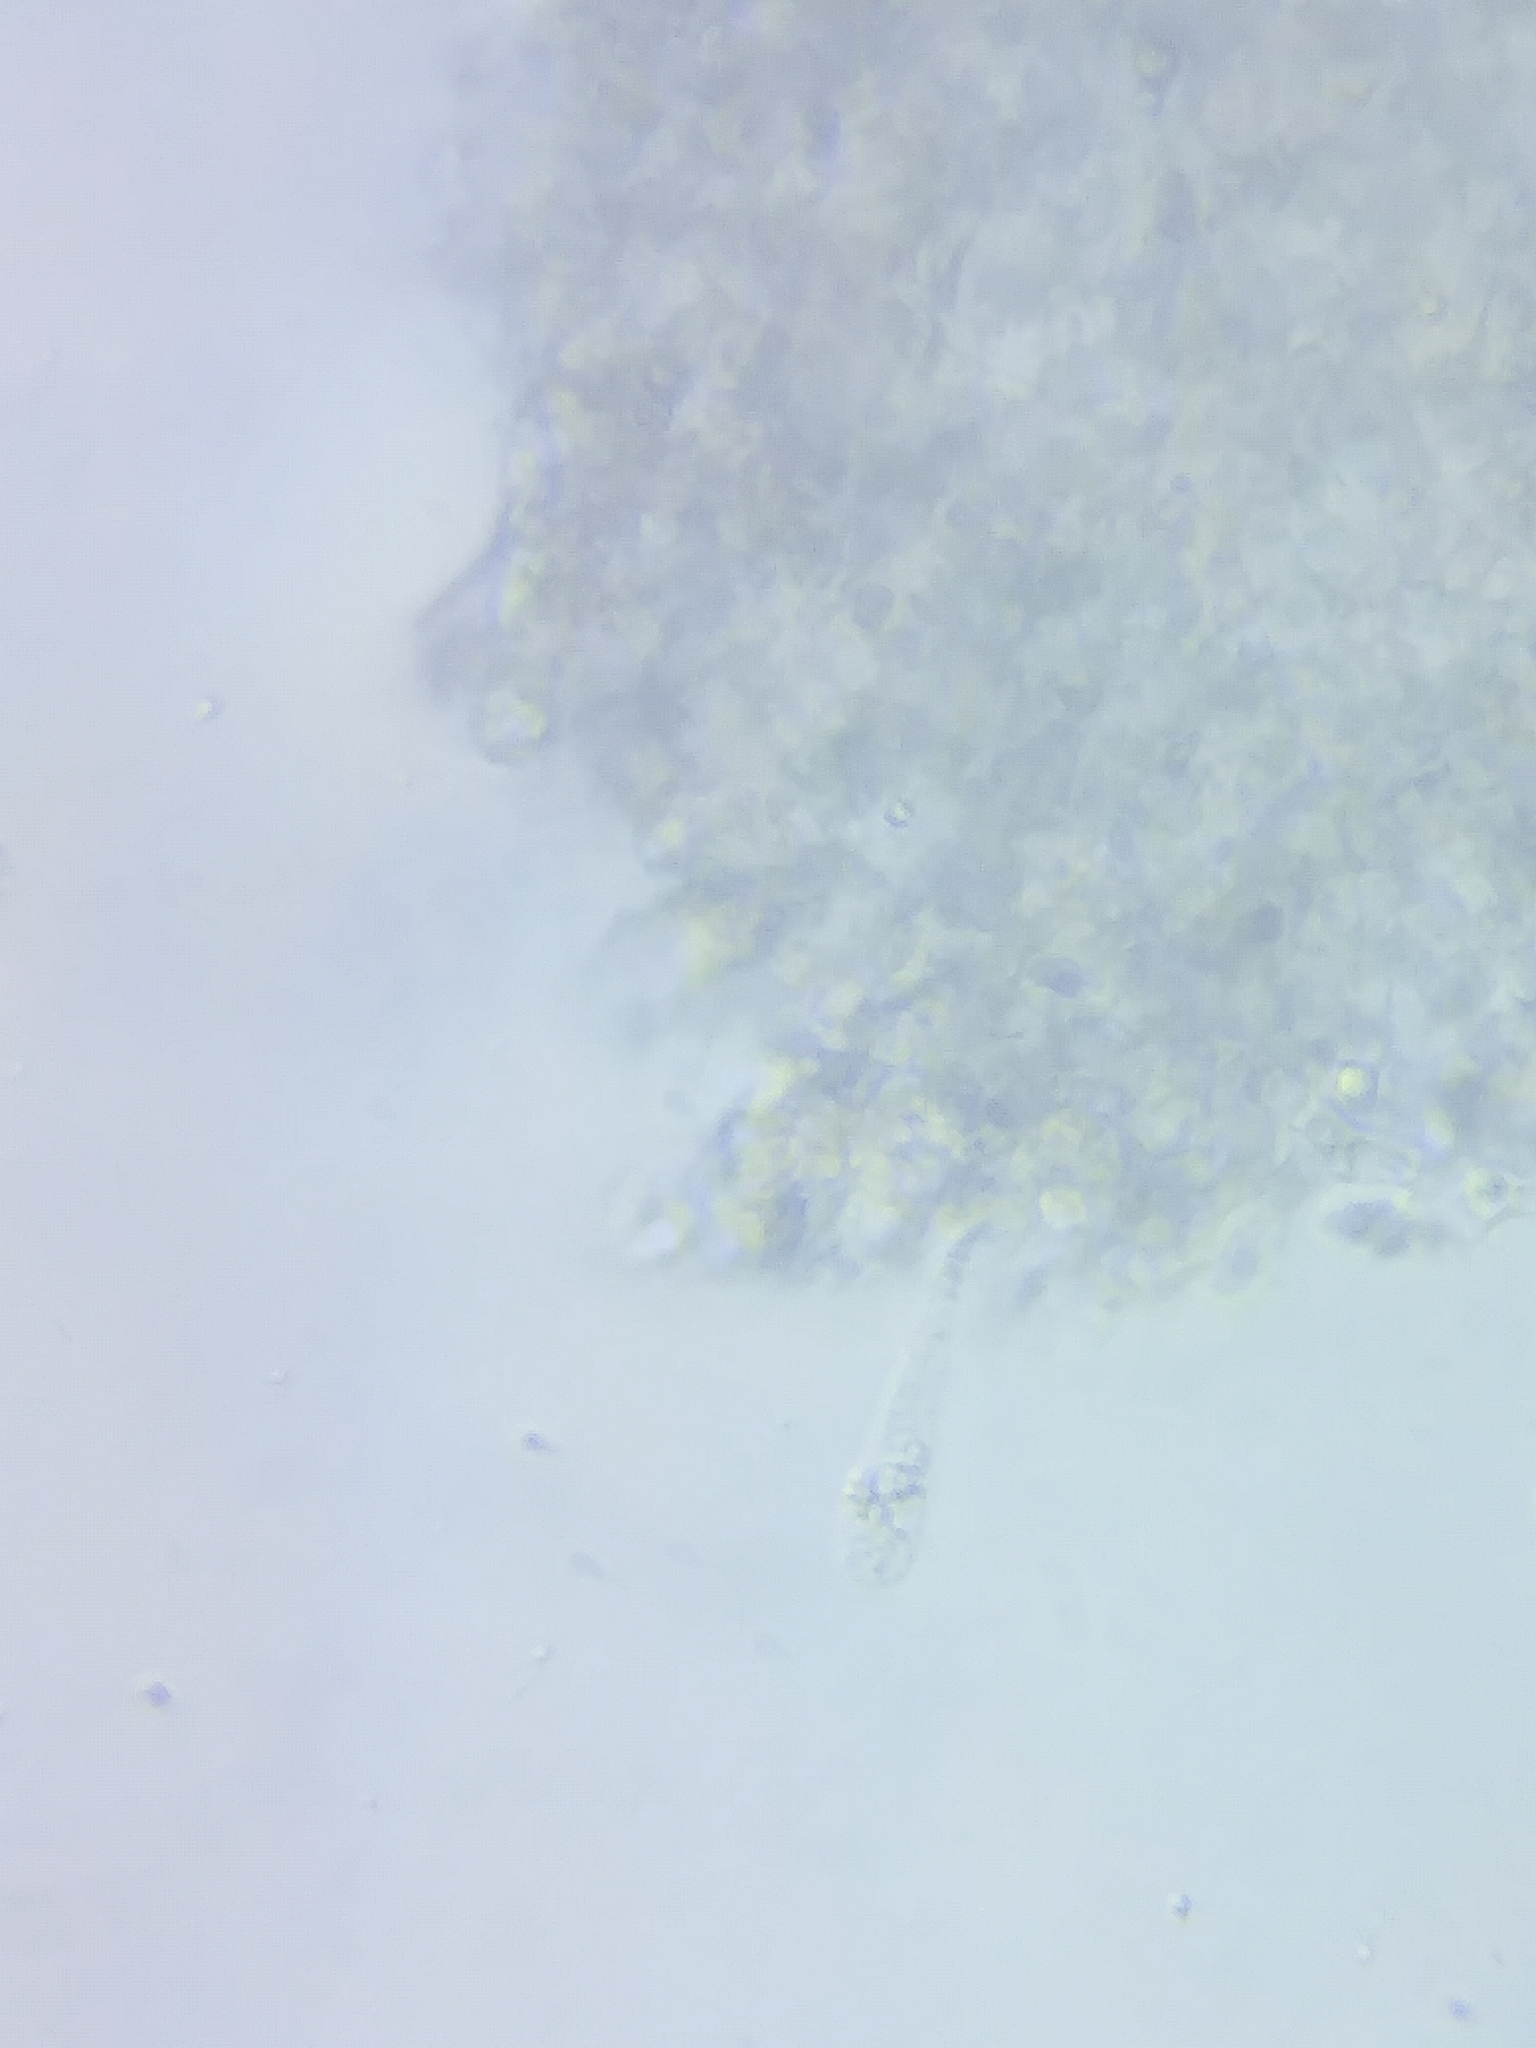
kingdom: Fungi
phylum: Basidiomycota
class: Agaricomycetes
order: Agaricales
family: Tricholomataceae
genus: Tricholoma
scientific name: Tricholoma insigne
